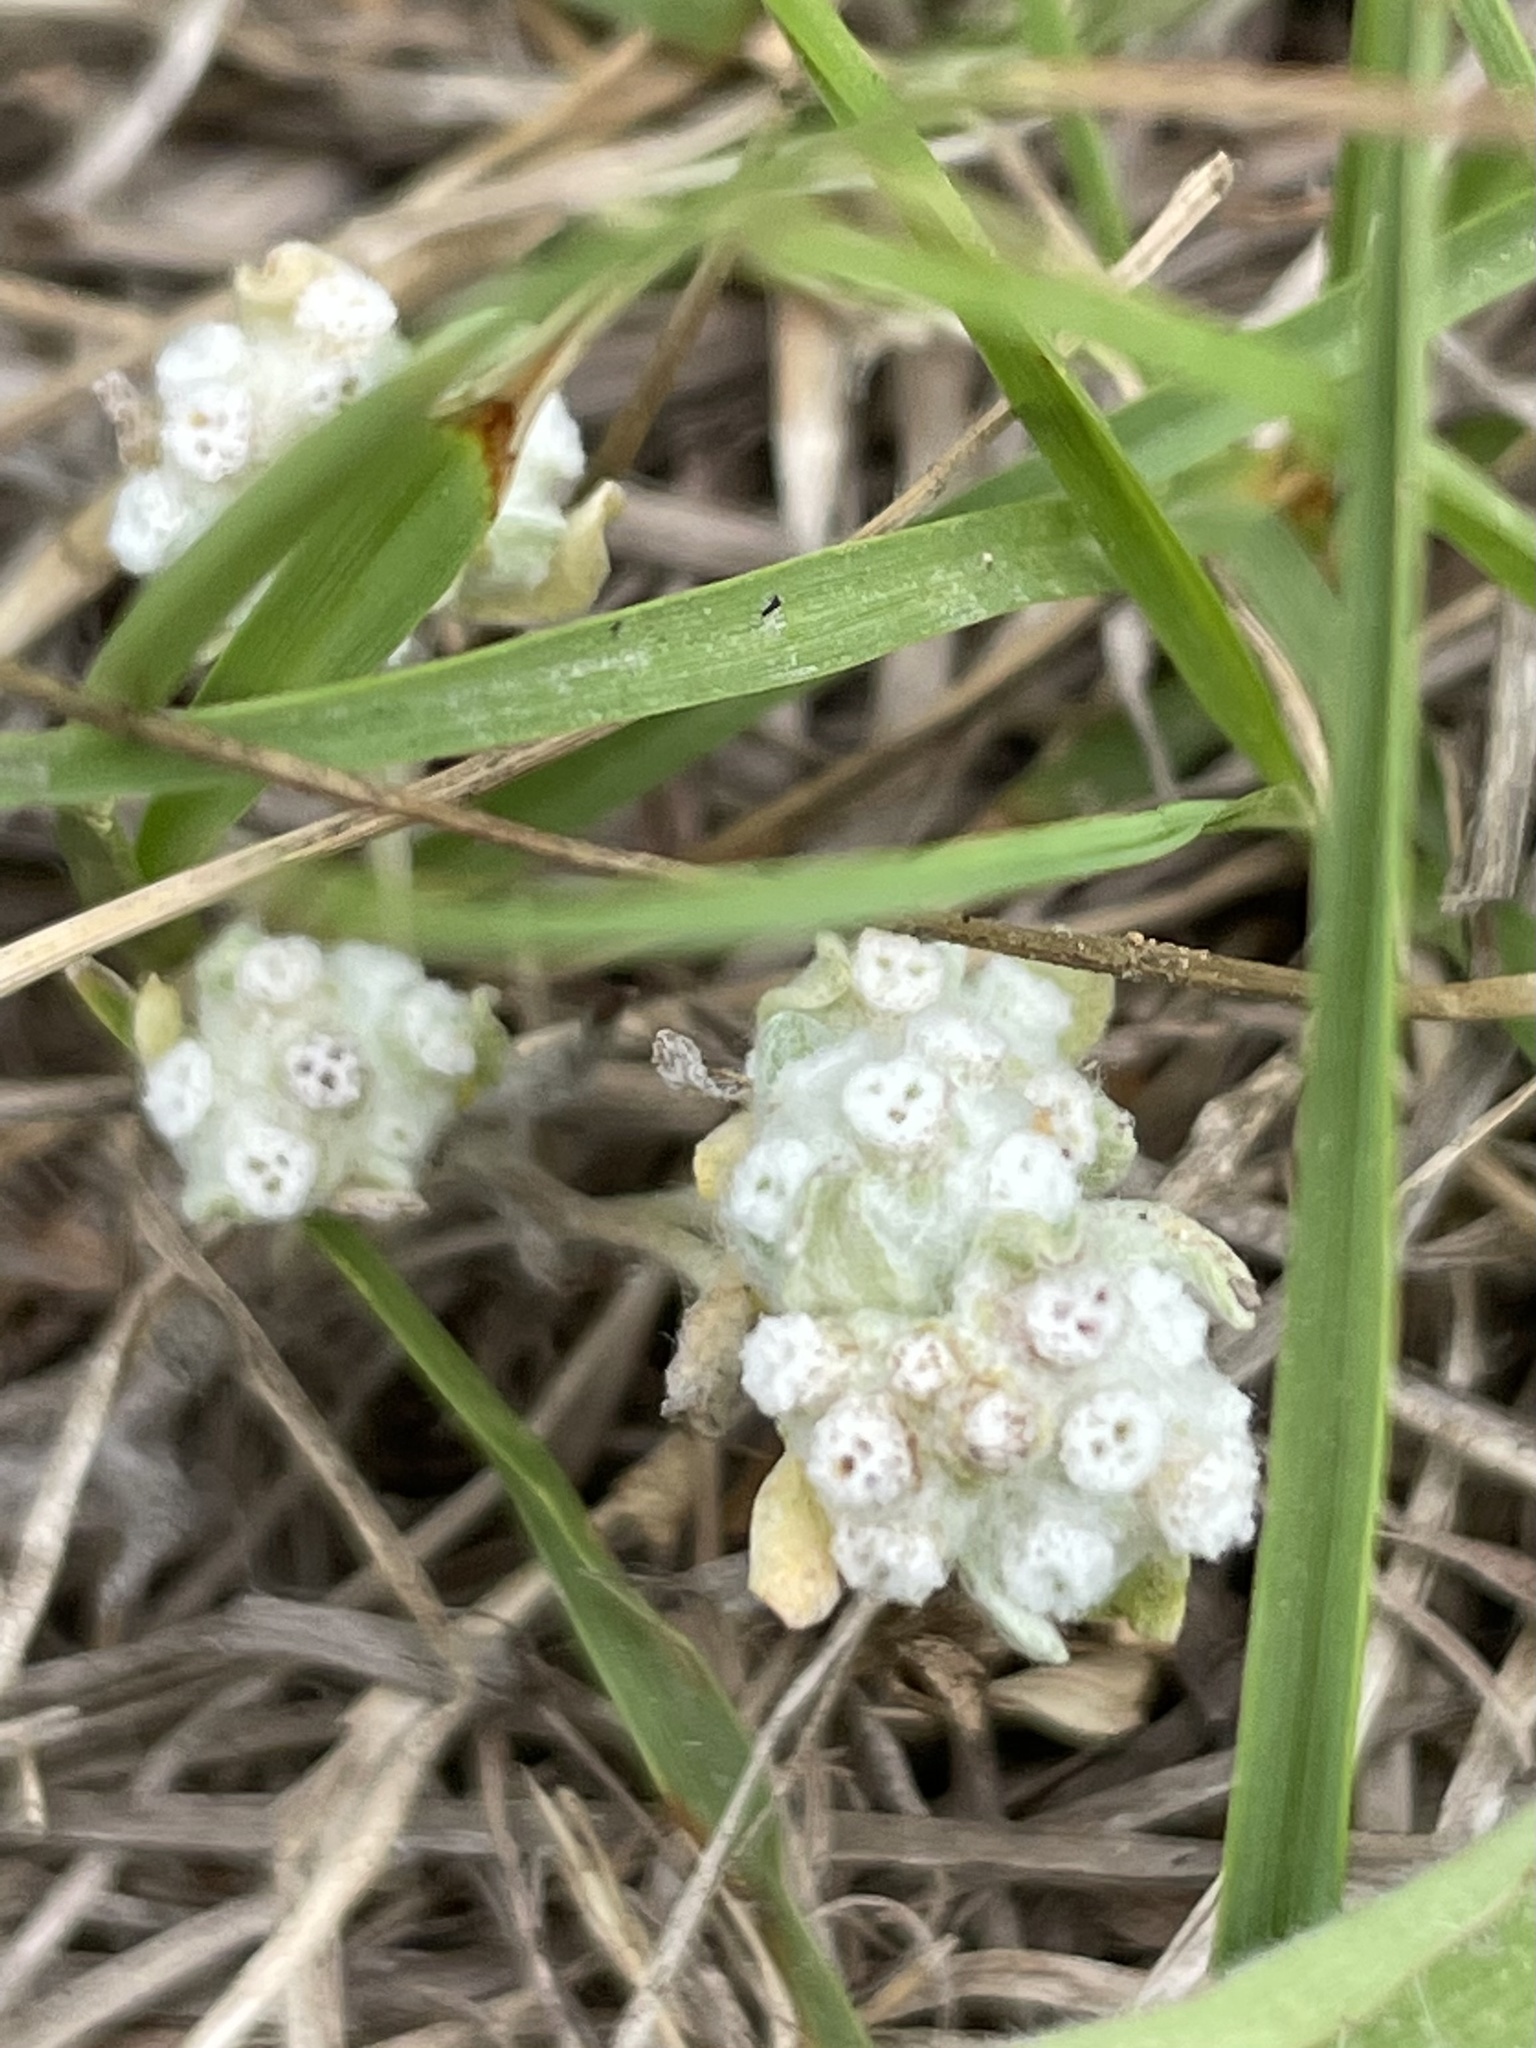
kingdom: Plantae
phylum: Tracheophyta
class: Magnoliopsida
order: Asterales
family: Asteraceae
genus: Diaperia
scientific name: Diaperia verna
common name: Many-stem rabbit-tobacco
